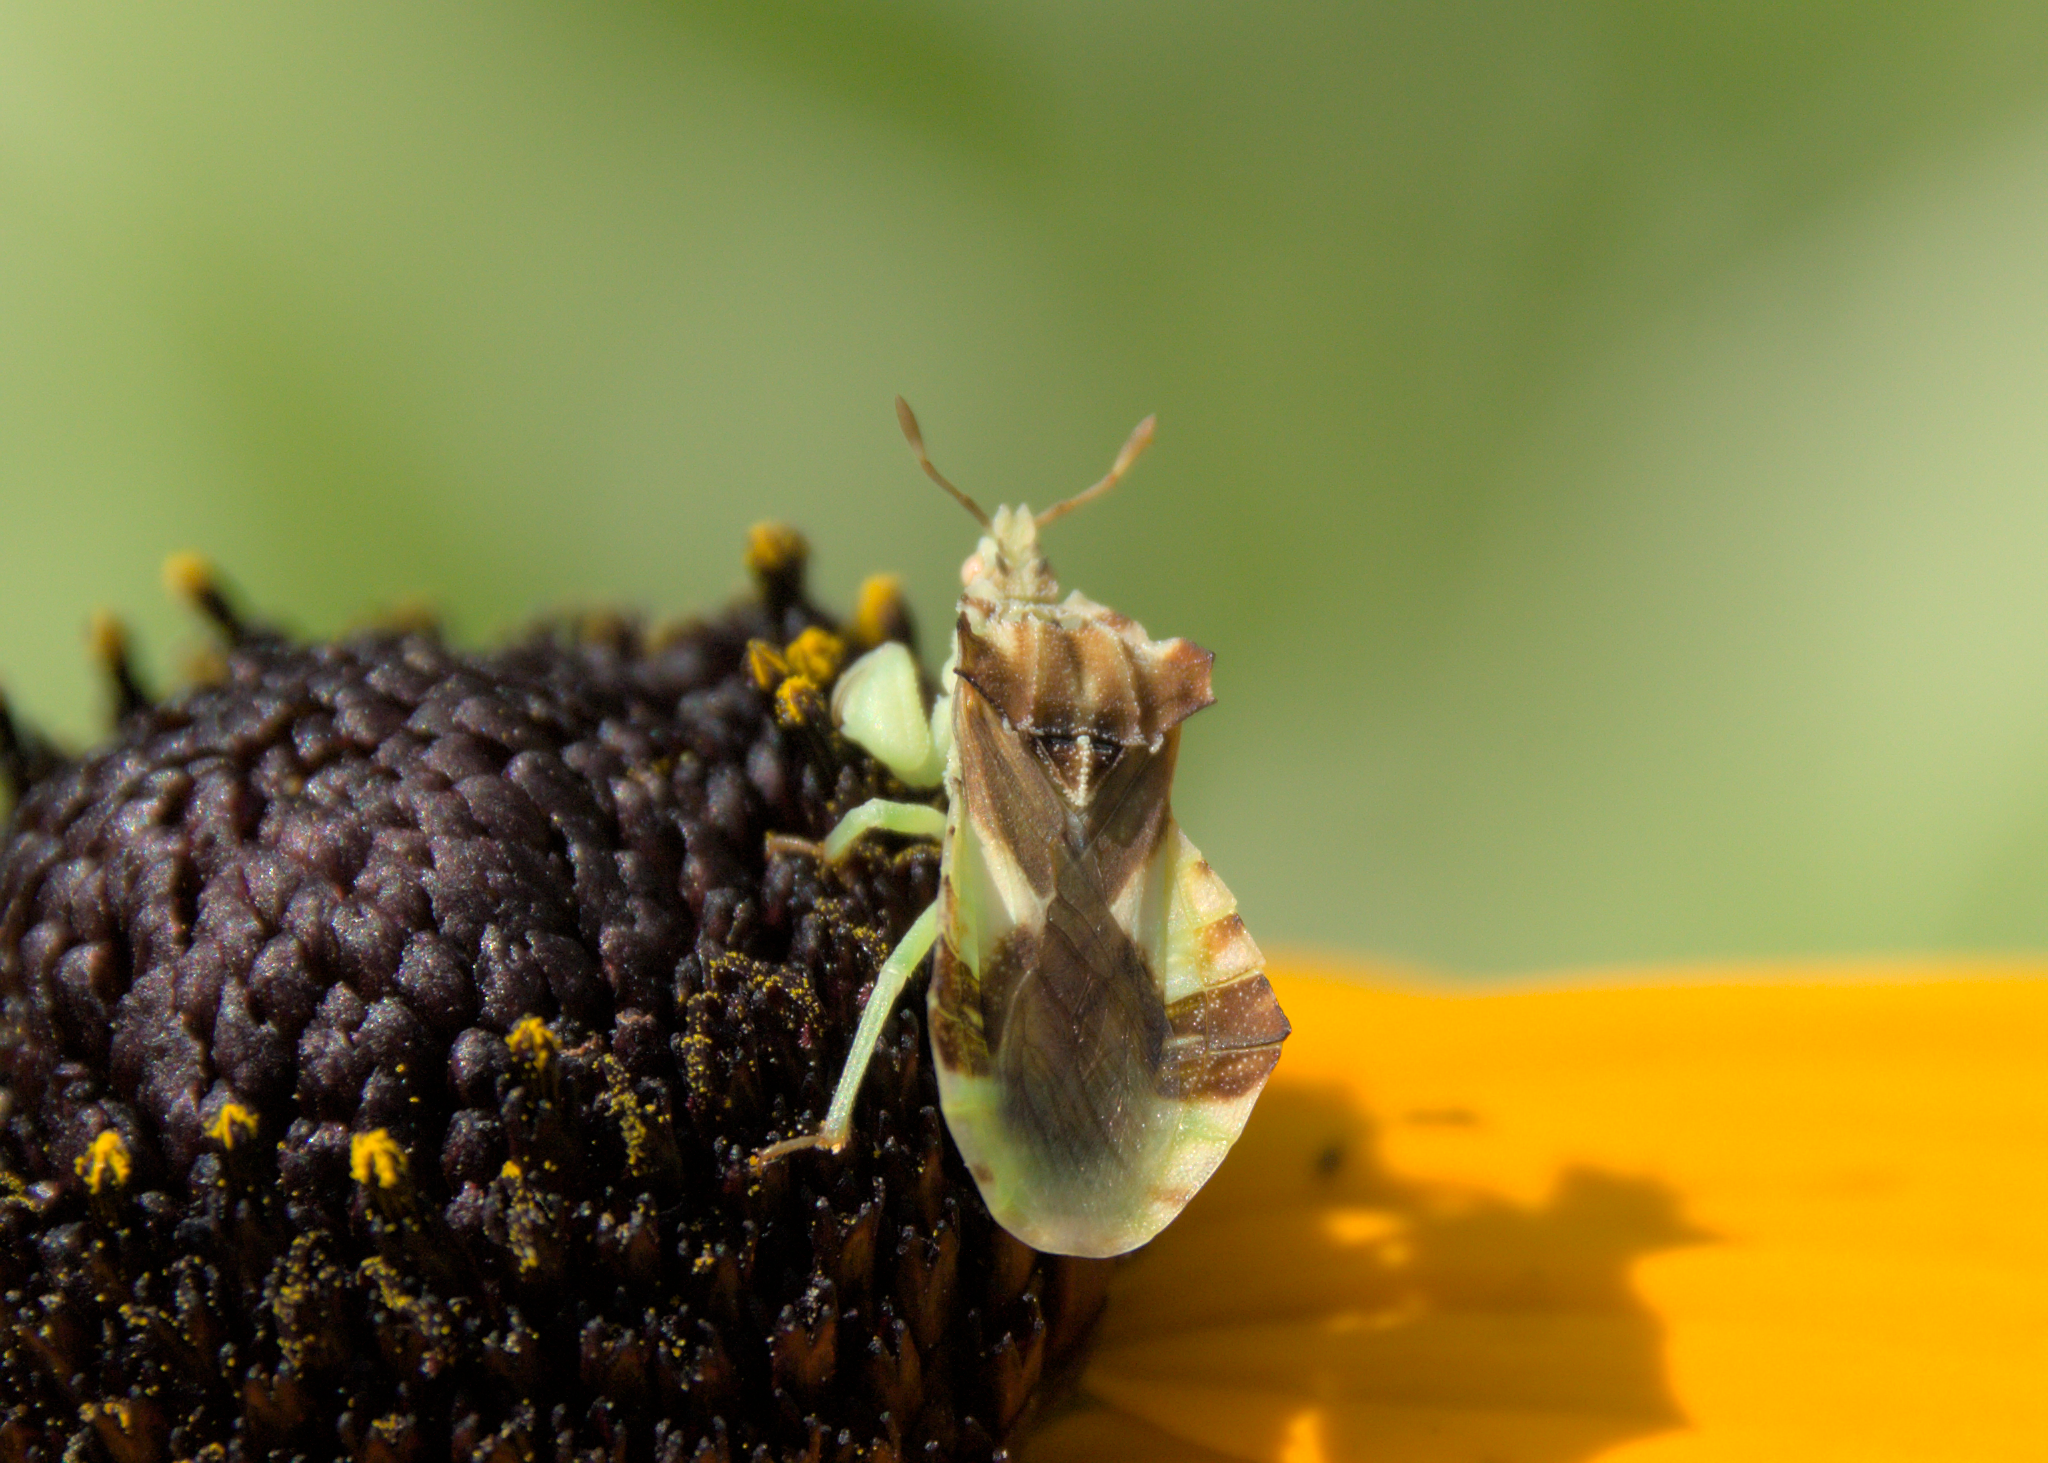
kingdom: Animalia
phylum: Arthropoda
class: Insecta
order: Hemiptera
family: Reduviidae
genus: Phymata
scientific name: Phymata americana
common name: Jagged ambush bug
